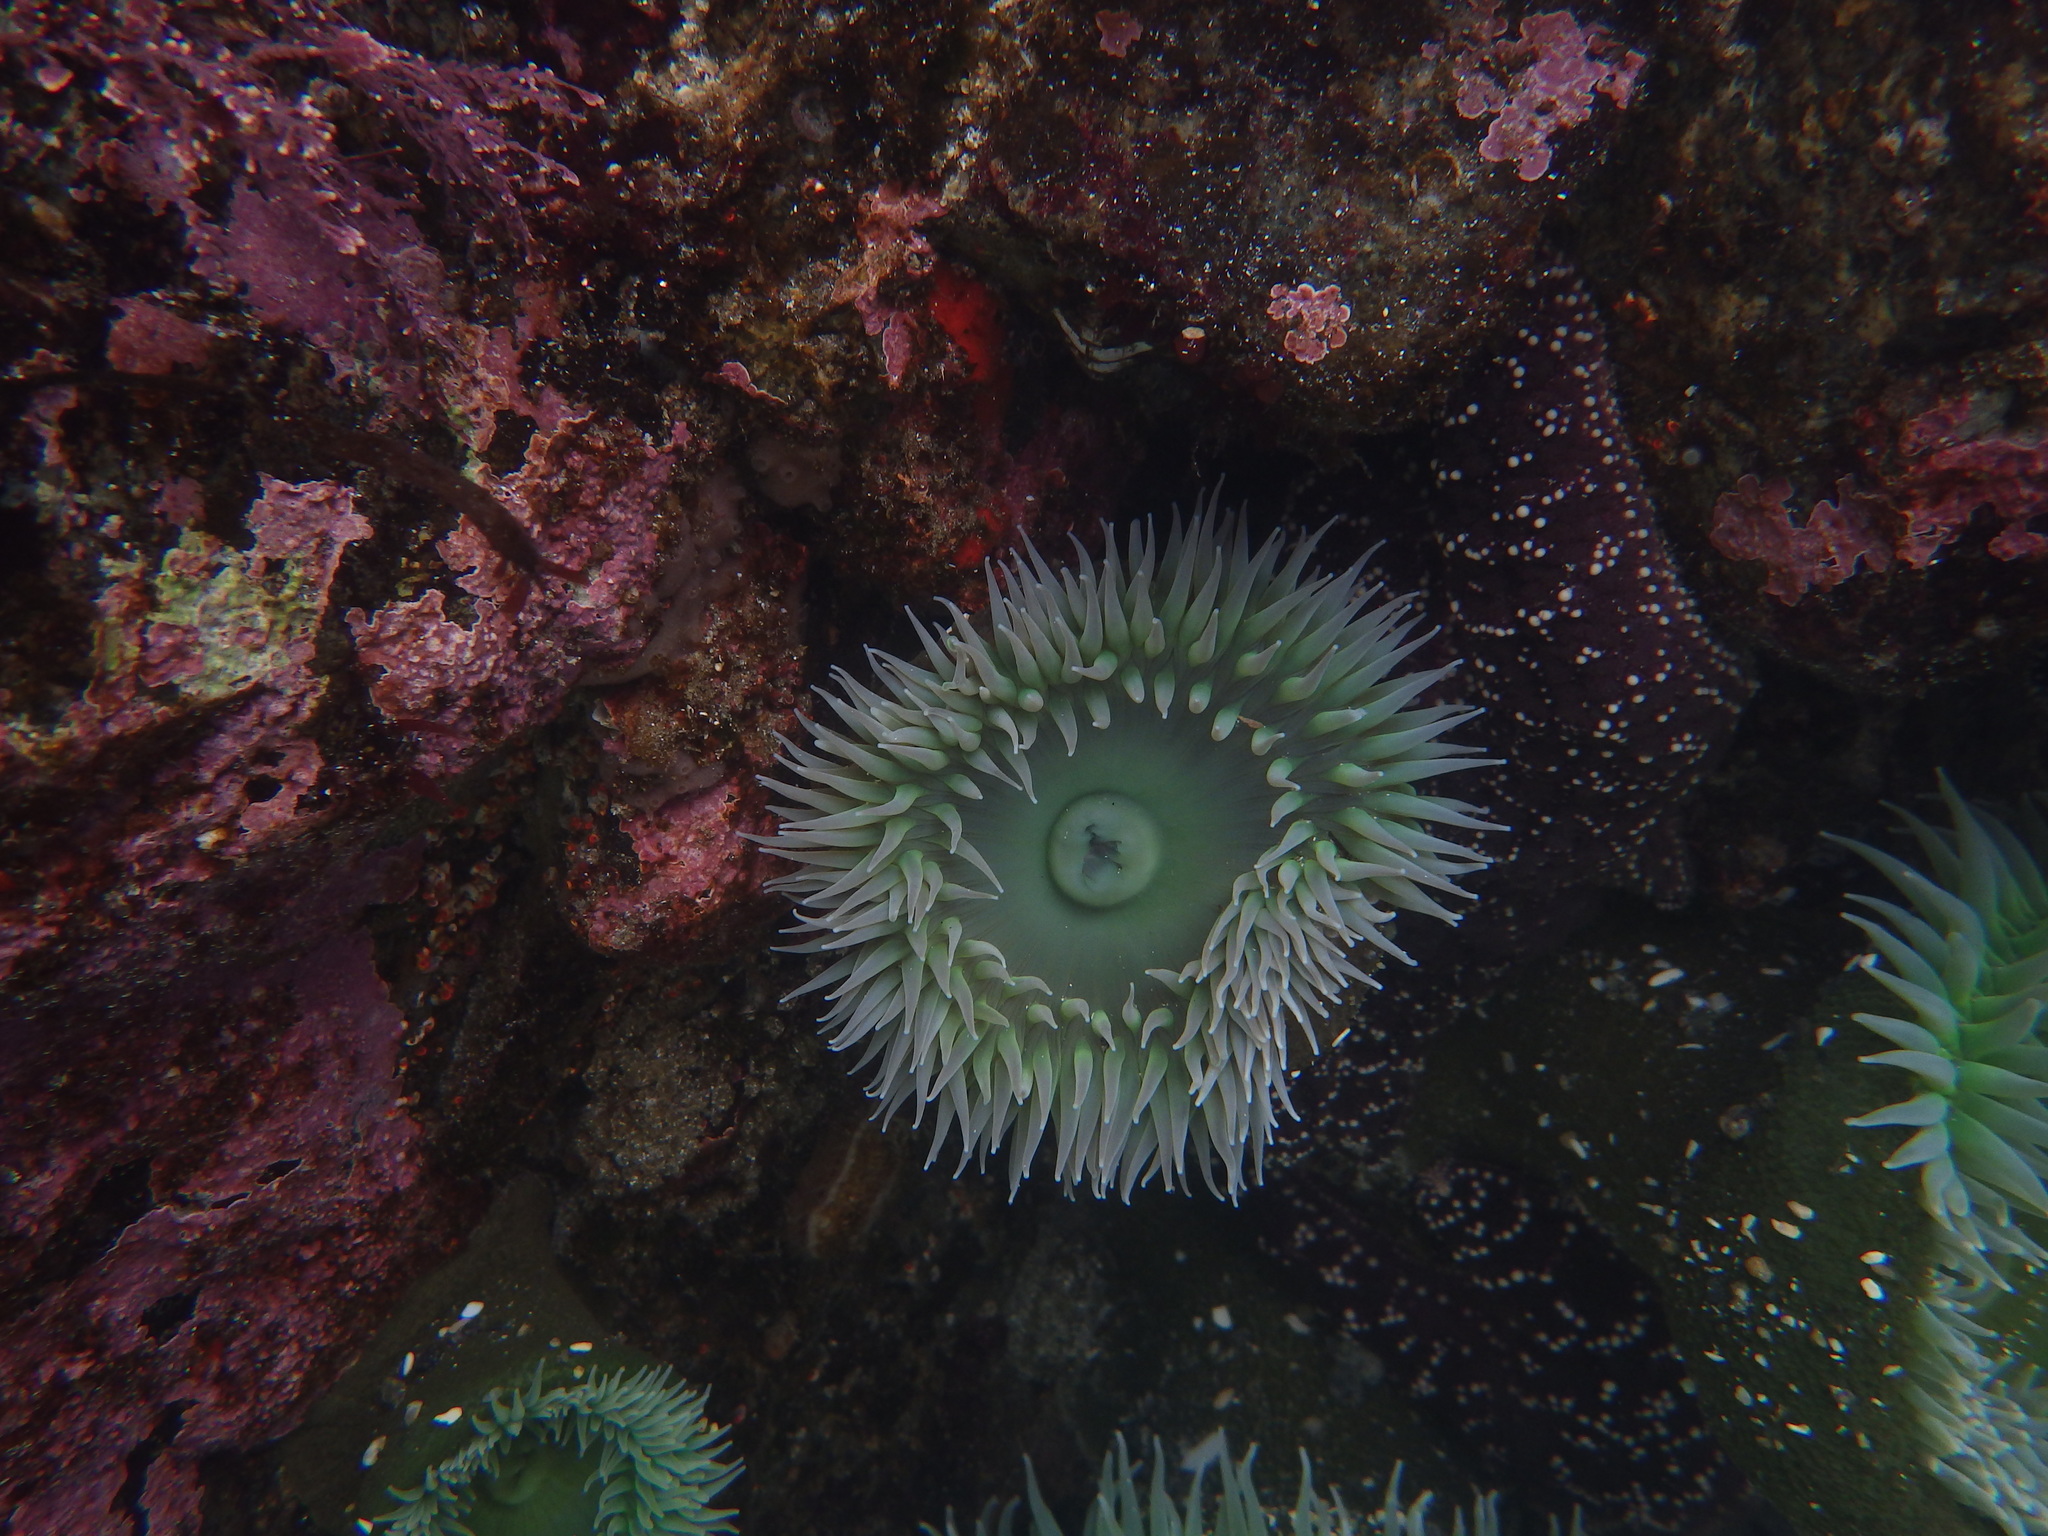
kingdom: Animalia
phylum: Cnidaria
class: Anthozoa
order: Actiniaria
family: Actiniidae
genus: Anthopleura
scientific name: Anthopleura xanthogrammica
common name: Giant green anemone
